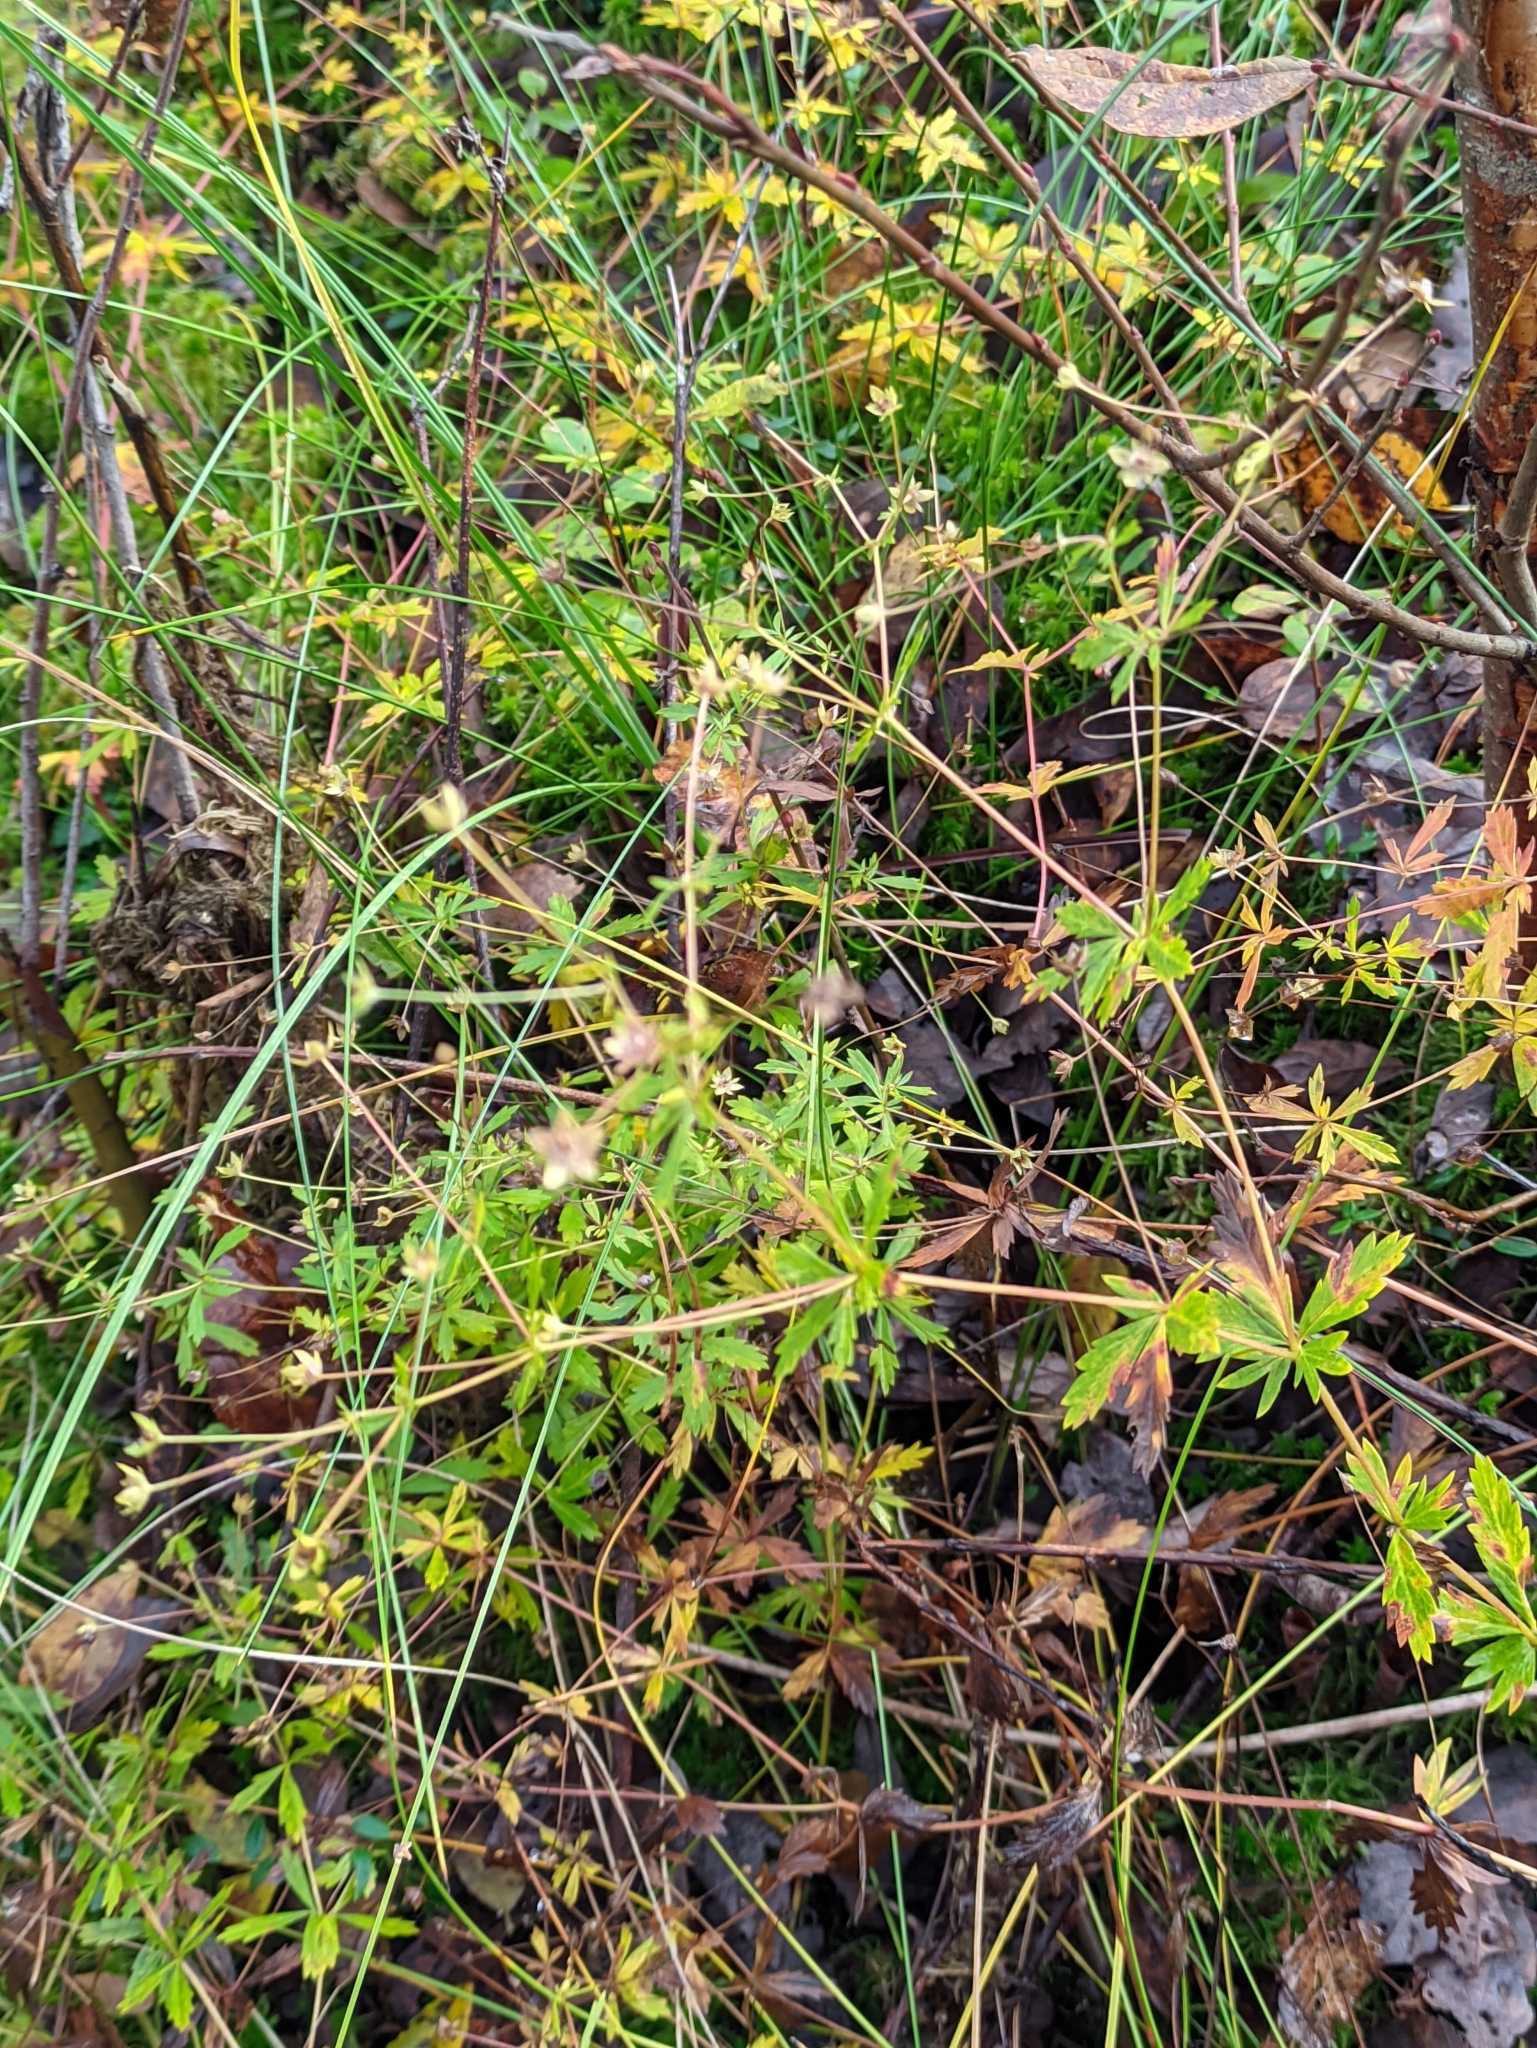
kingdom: Plantae
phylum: Tracheophyta
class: Magnoliopsida
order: Rosales
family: Rosaceae
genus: Potentilla
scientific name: Potentilla erecta
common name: Tormentil
